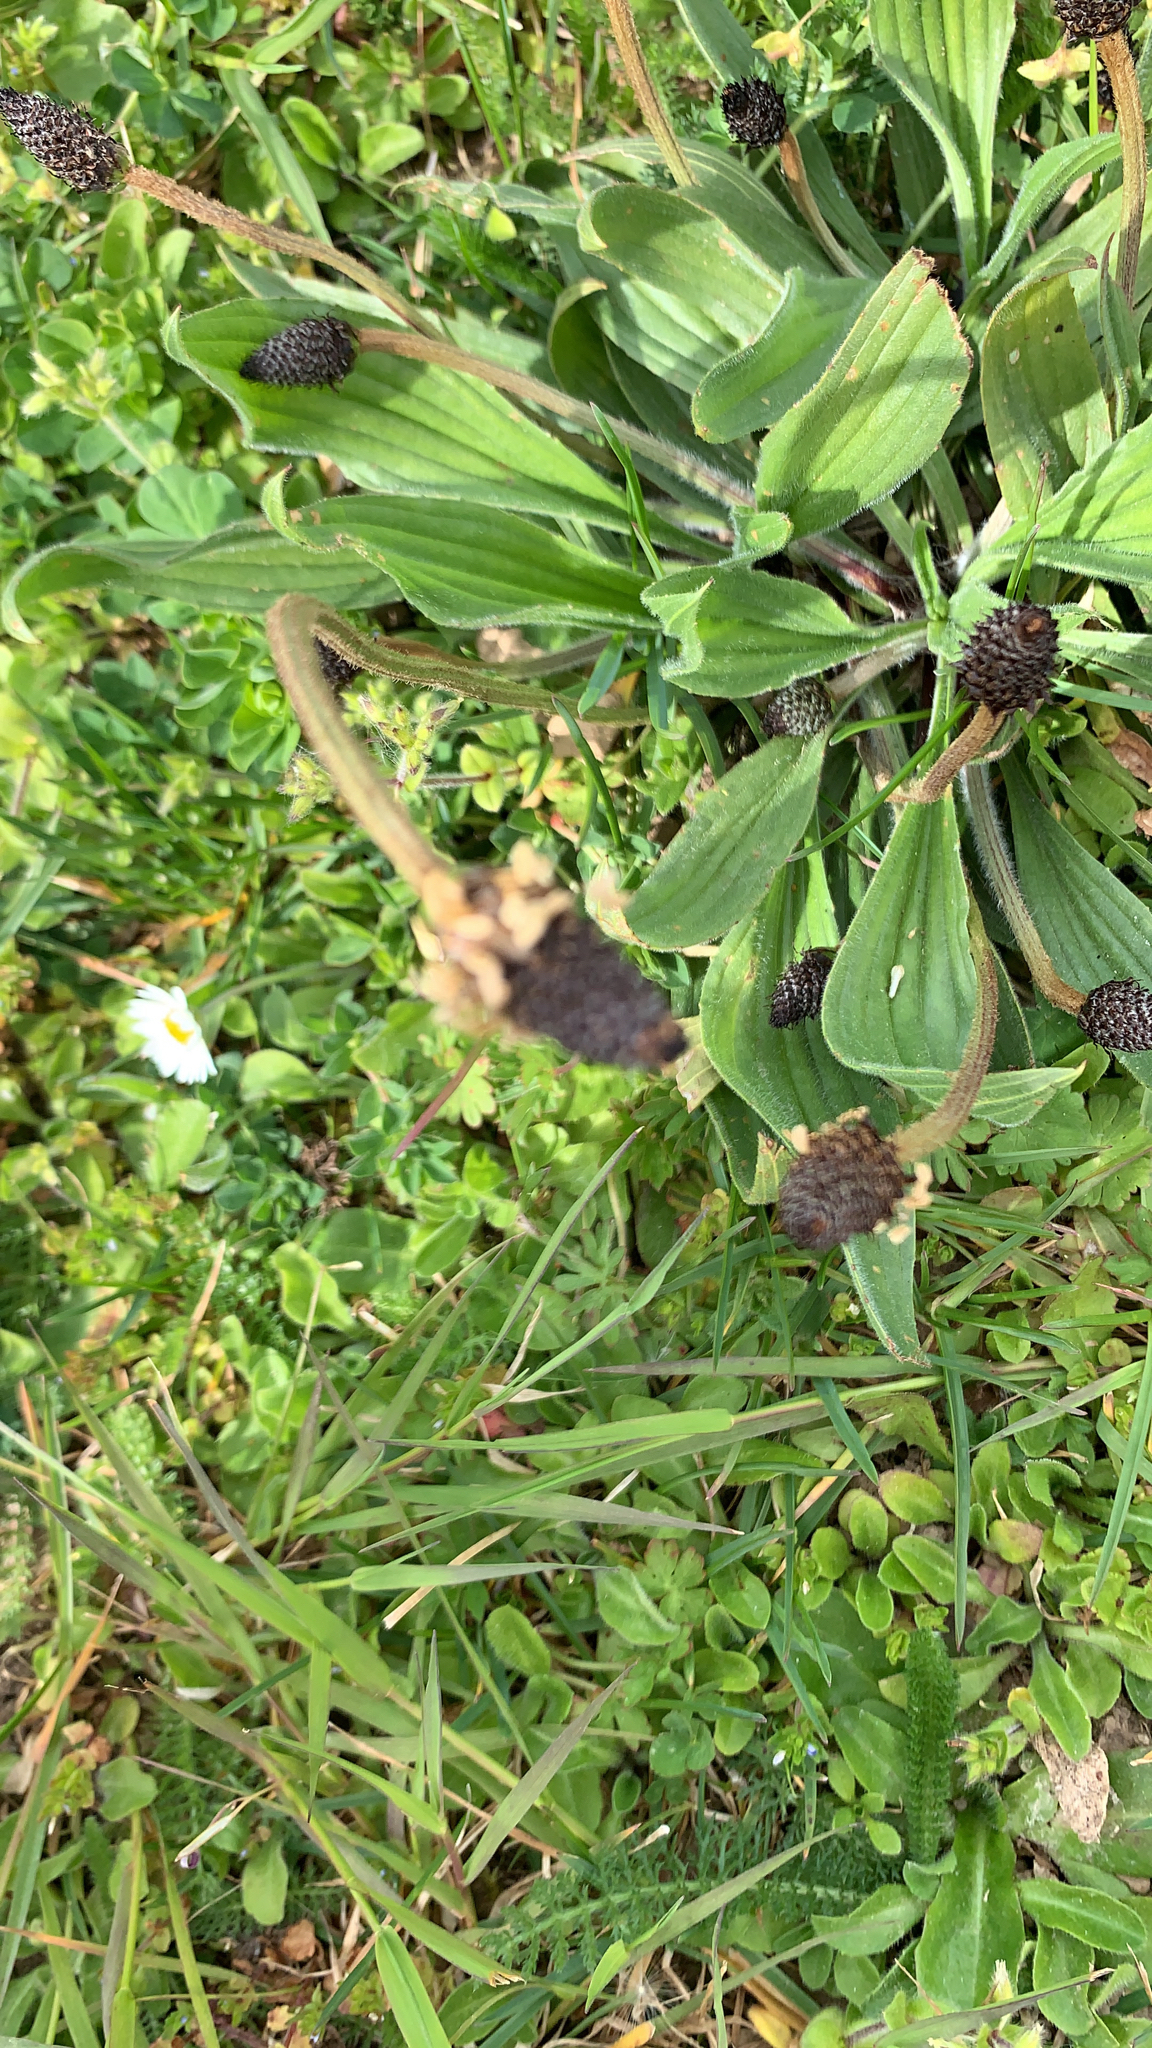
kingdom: Plantae
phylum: Tracheophyta
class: Magnoliopsida
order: Lamiales
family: Plantaginaceae
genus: Plantago
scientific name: Plantago lanceolata
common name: Ribwort plantain
